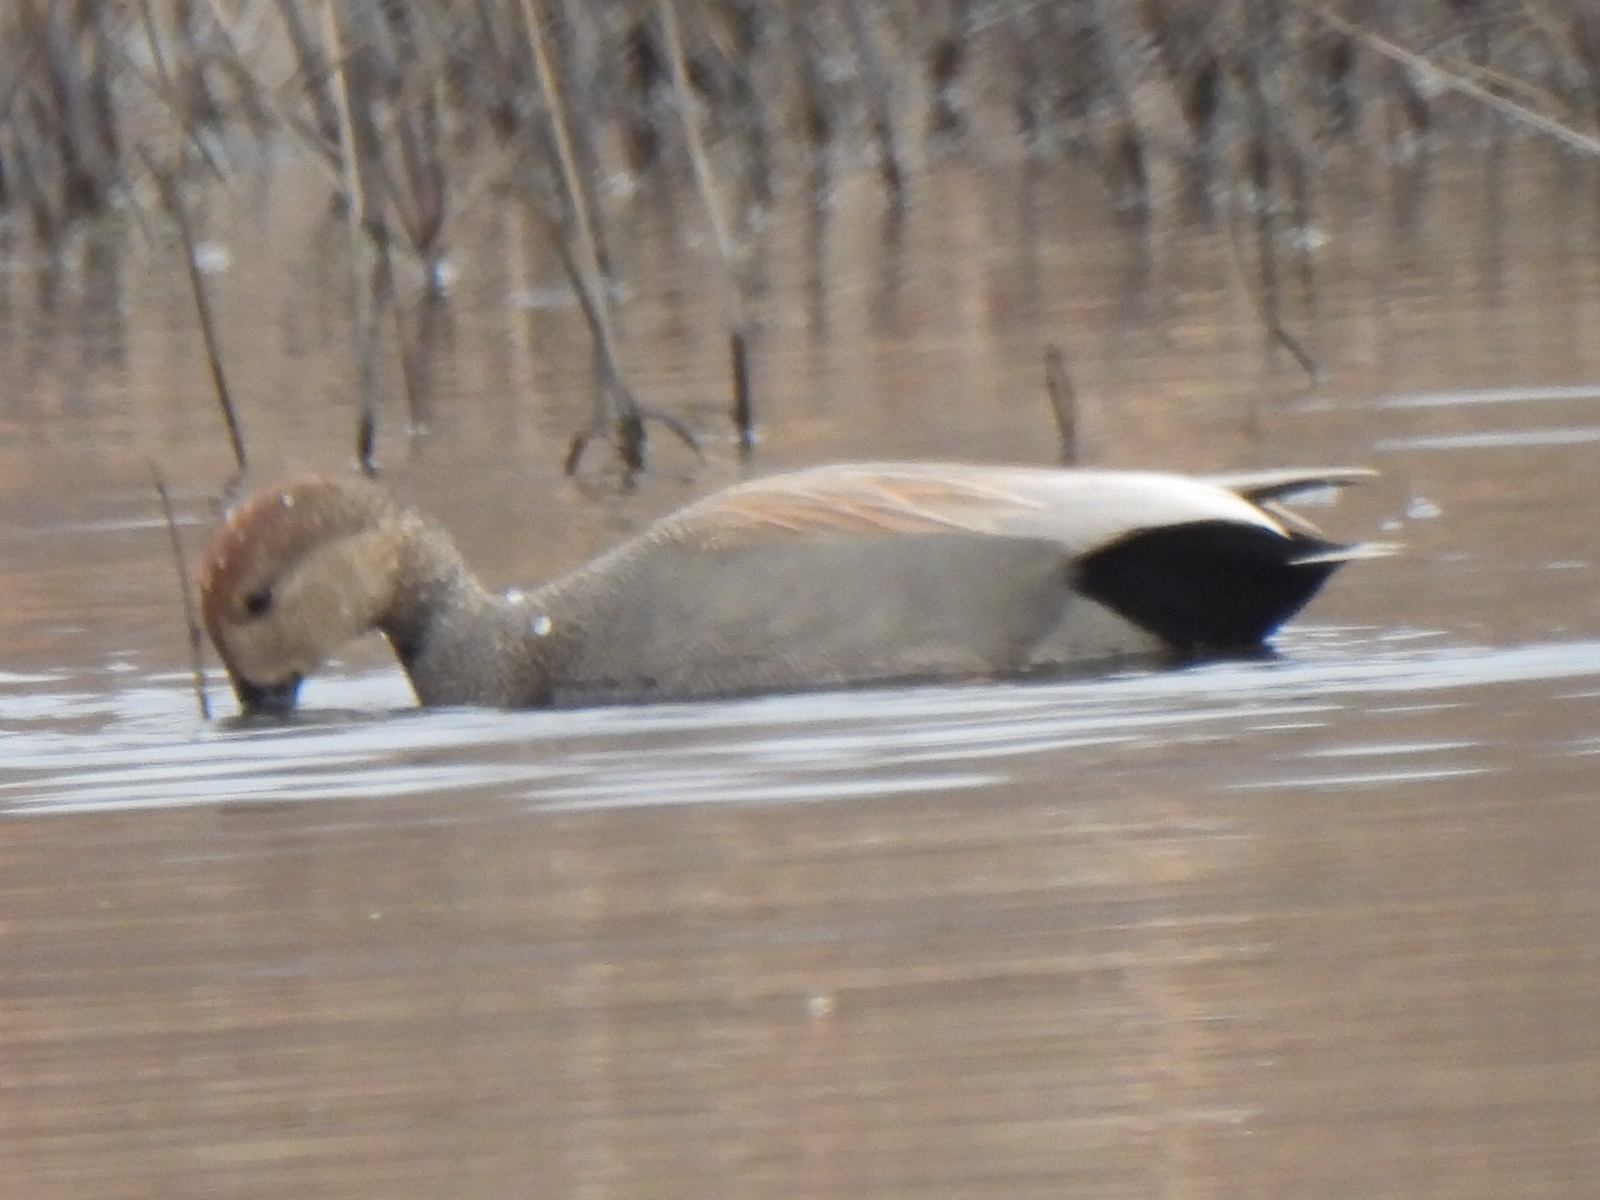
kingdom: Animalia
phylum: Chordata
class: Aves
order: Anseriformes
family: Anatidae
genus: Mareca
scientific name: Mareca strepera
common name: Gadwall
